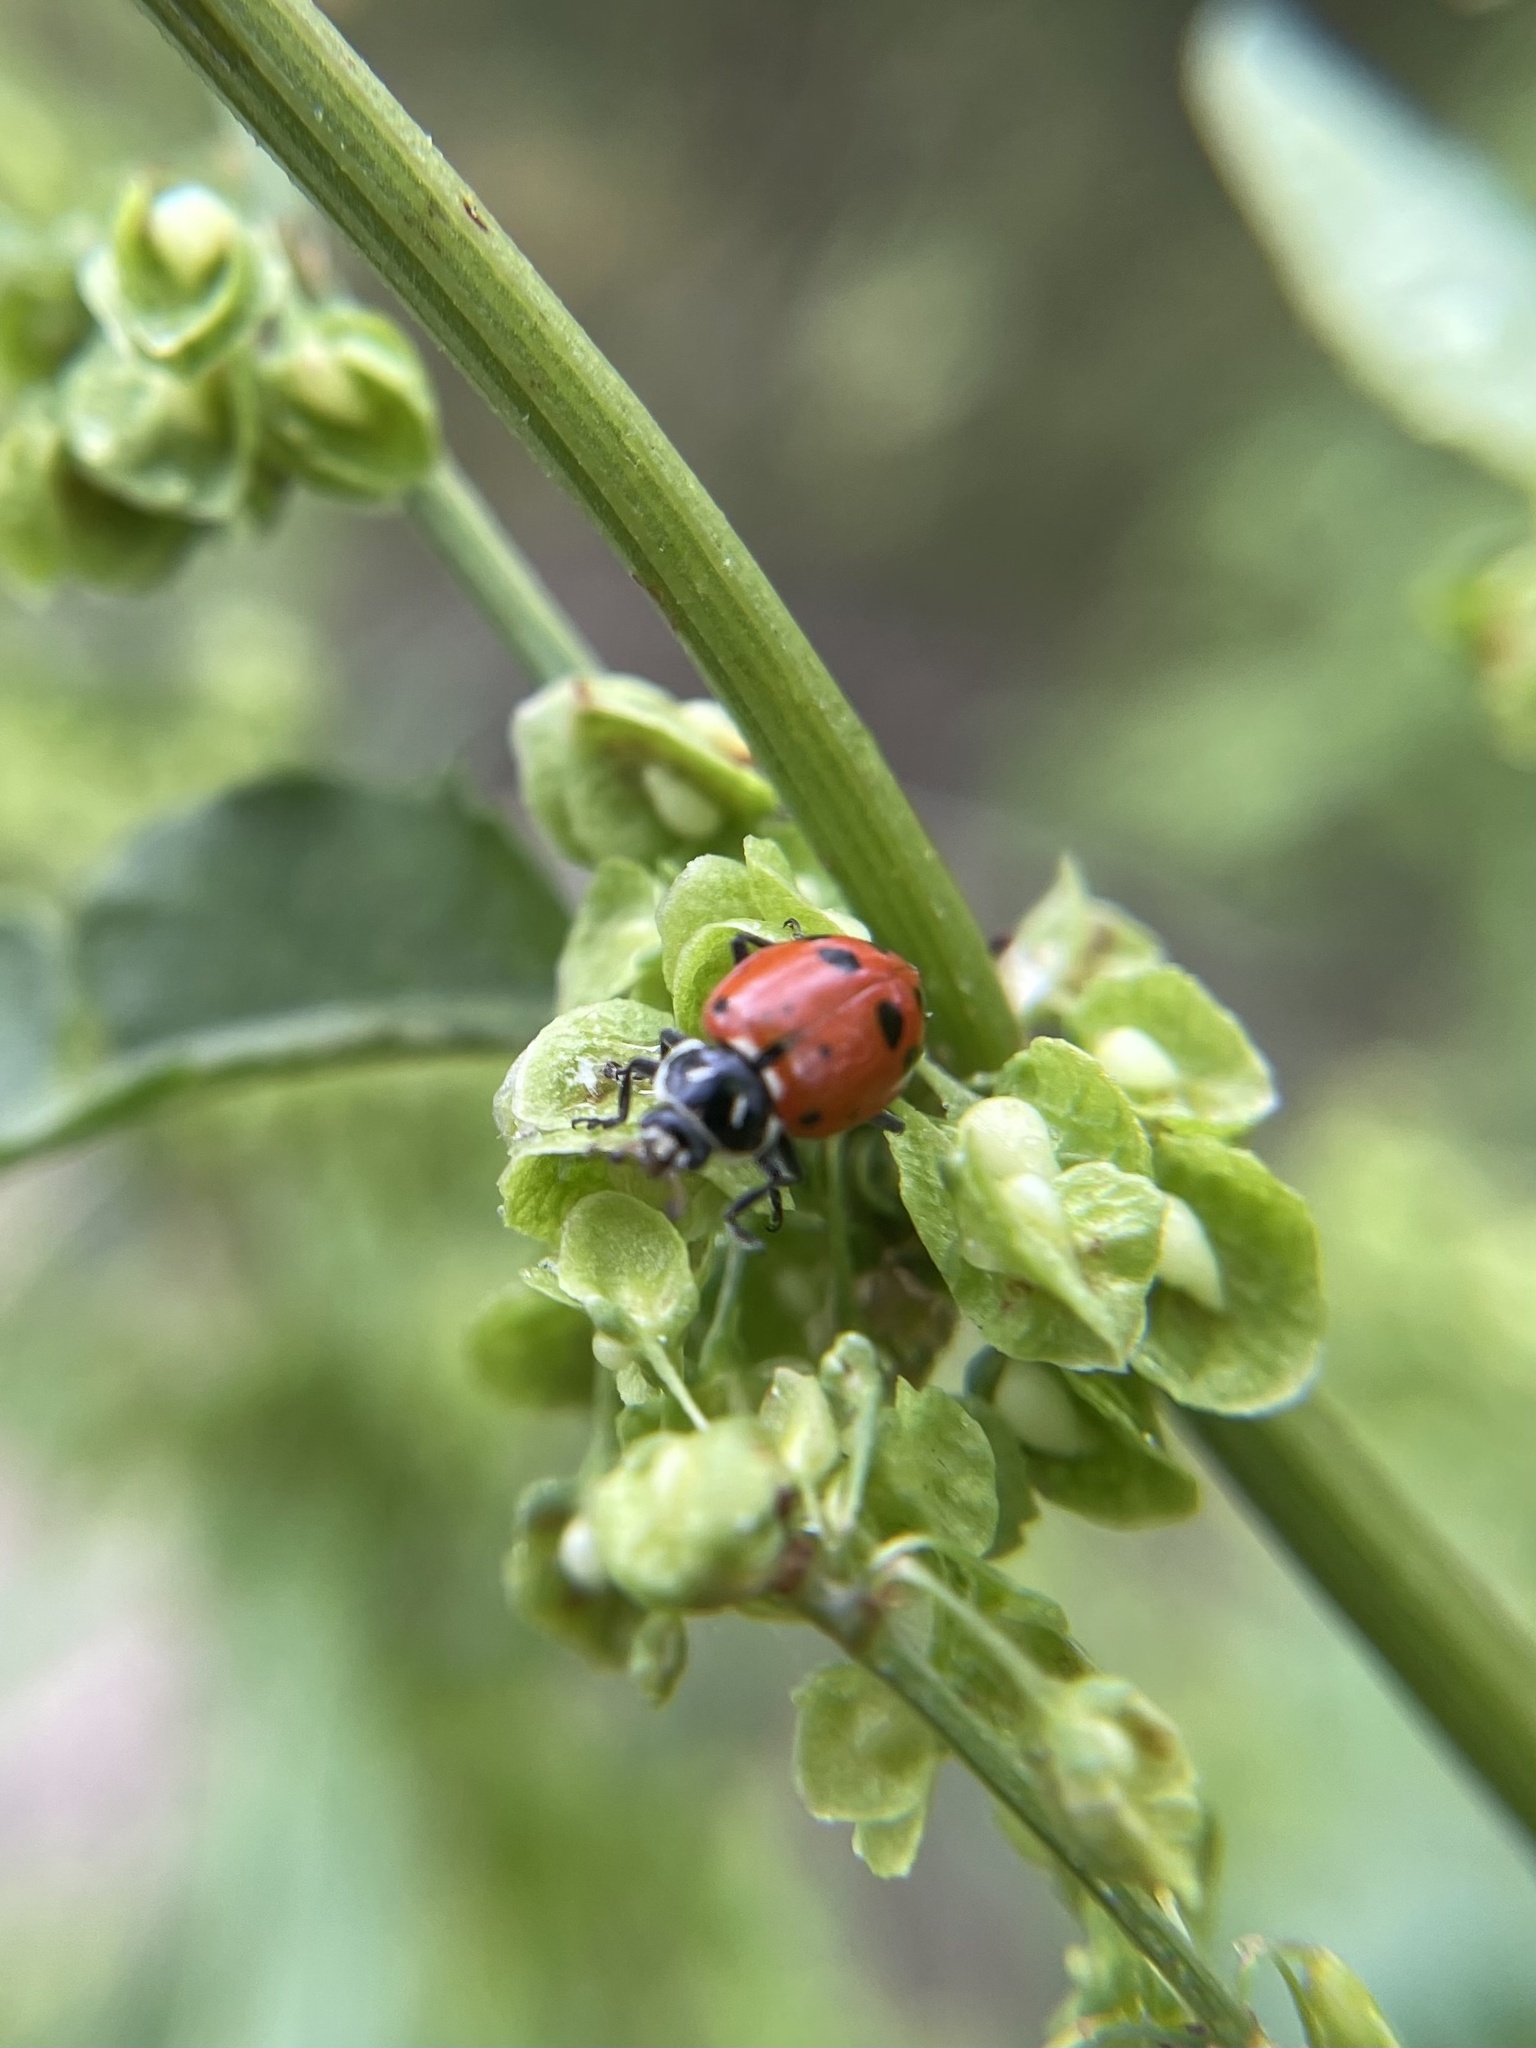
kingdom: Animalia
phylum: Arthropoda
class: Insecta
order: Coleoptera
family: Coccinellidae
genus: Hippodamia
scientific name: Hippodamia convergens
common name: Convergent lady beetle
